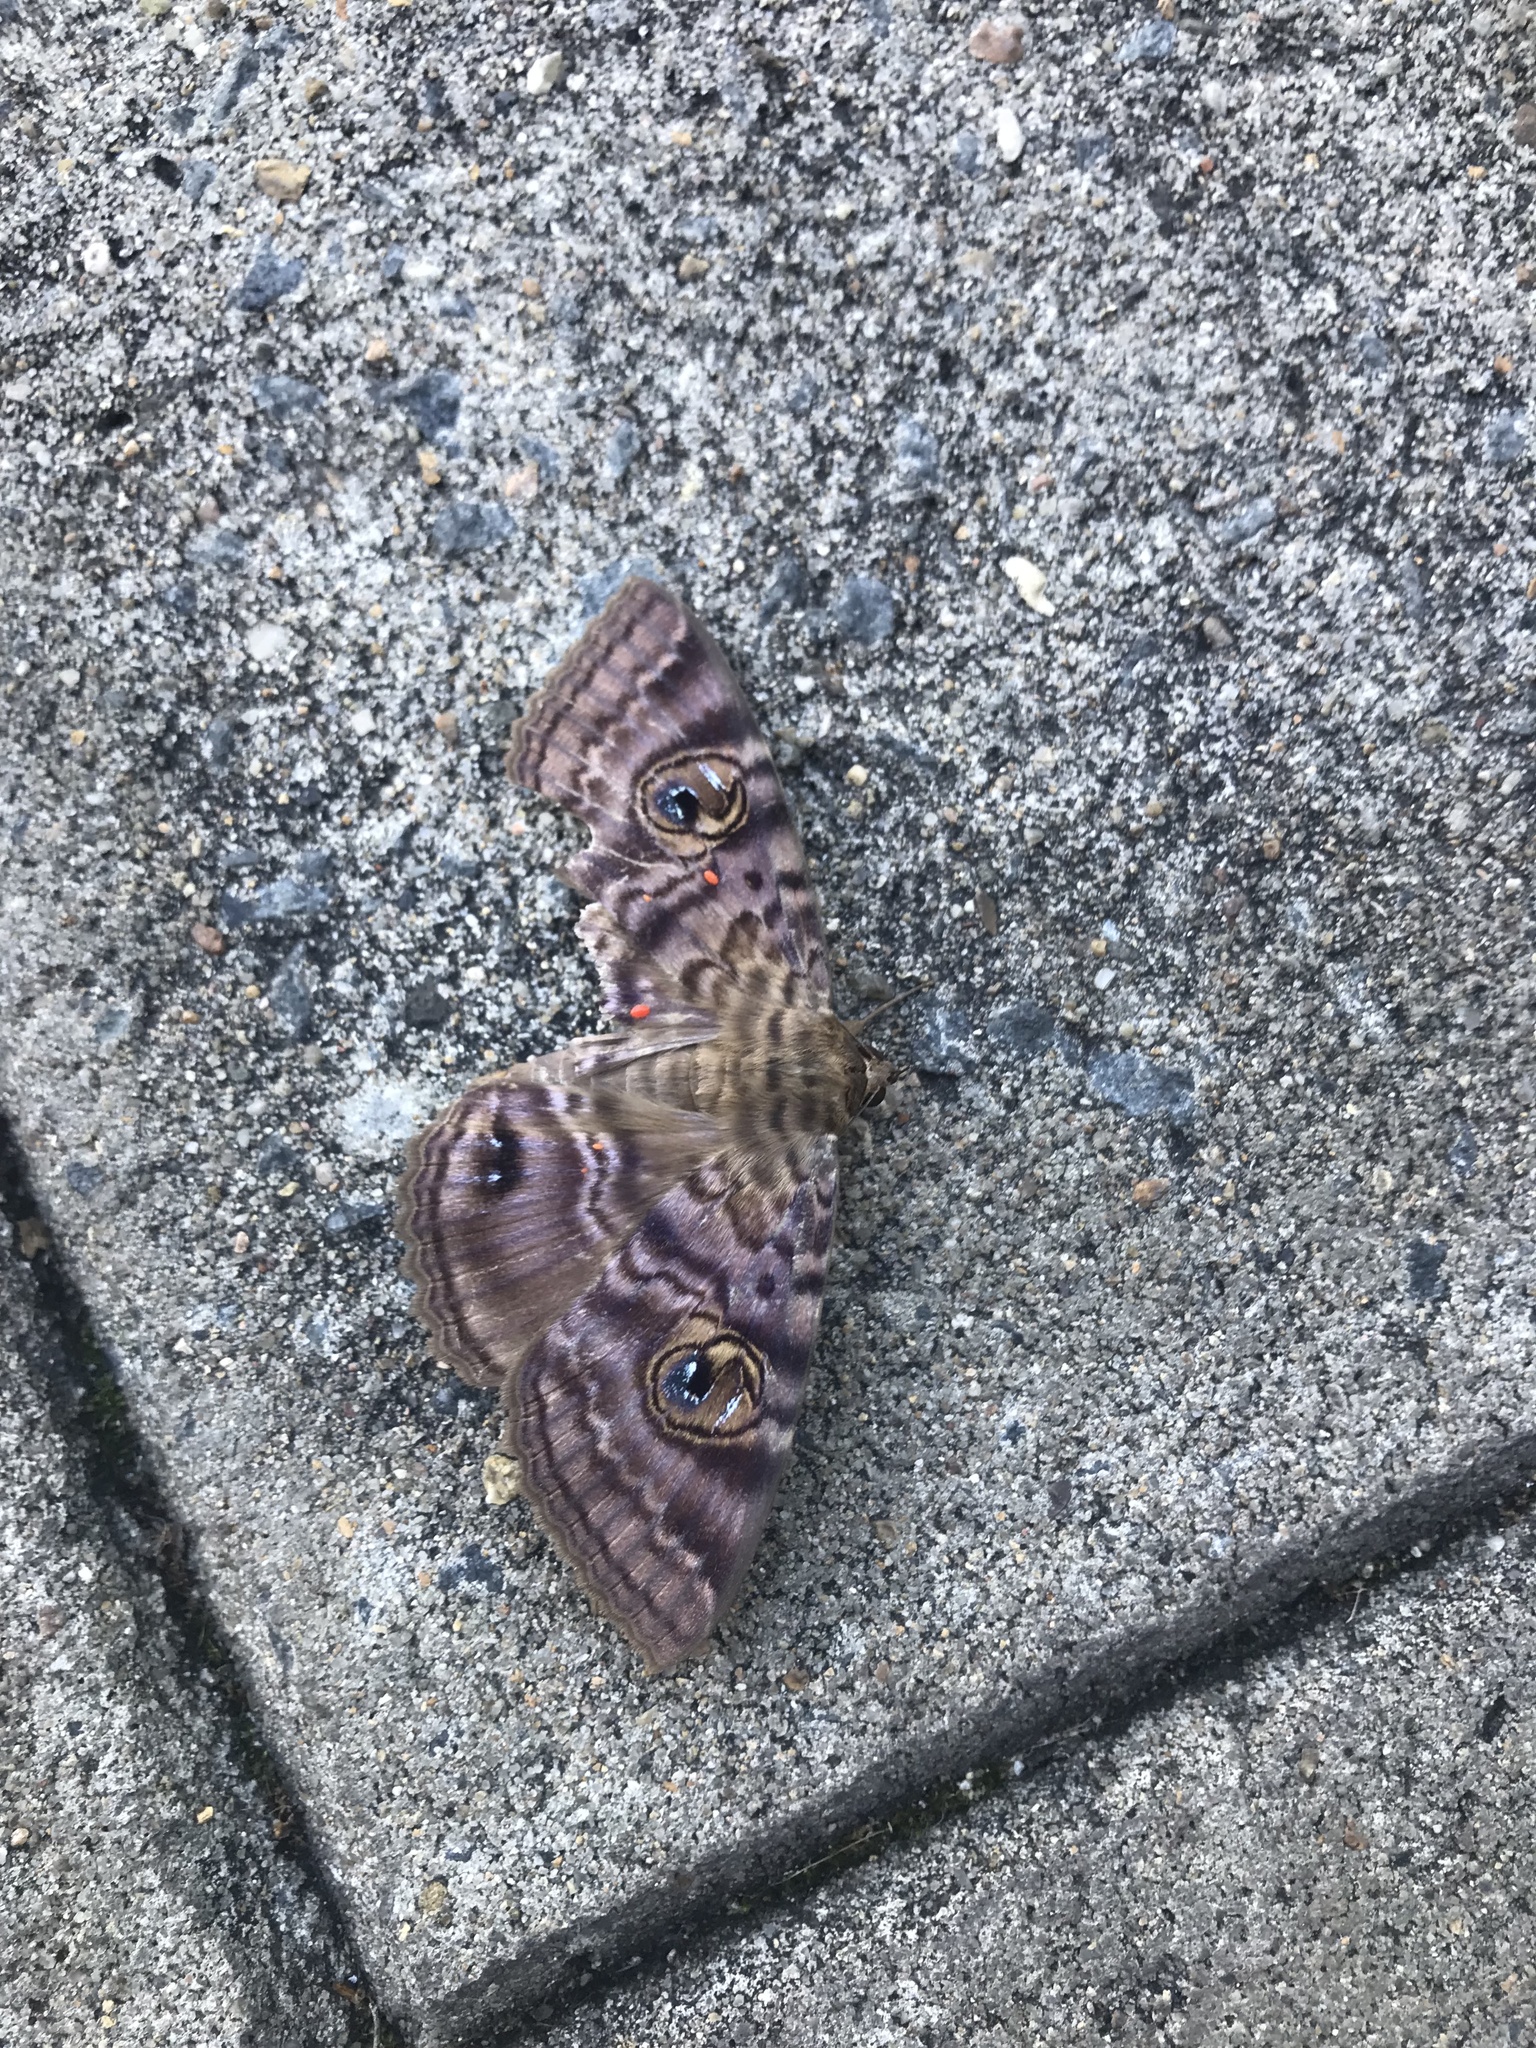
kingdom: Animalia
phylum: Arthropoda
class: Insecta
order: Lepidoptera
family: Erebidae
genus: Speiredonia
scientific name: Speiredonia spectans
